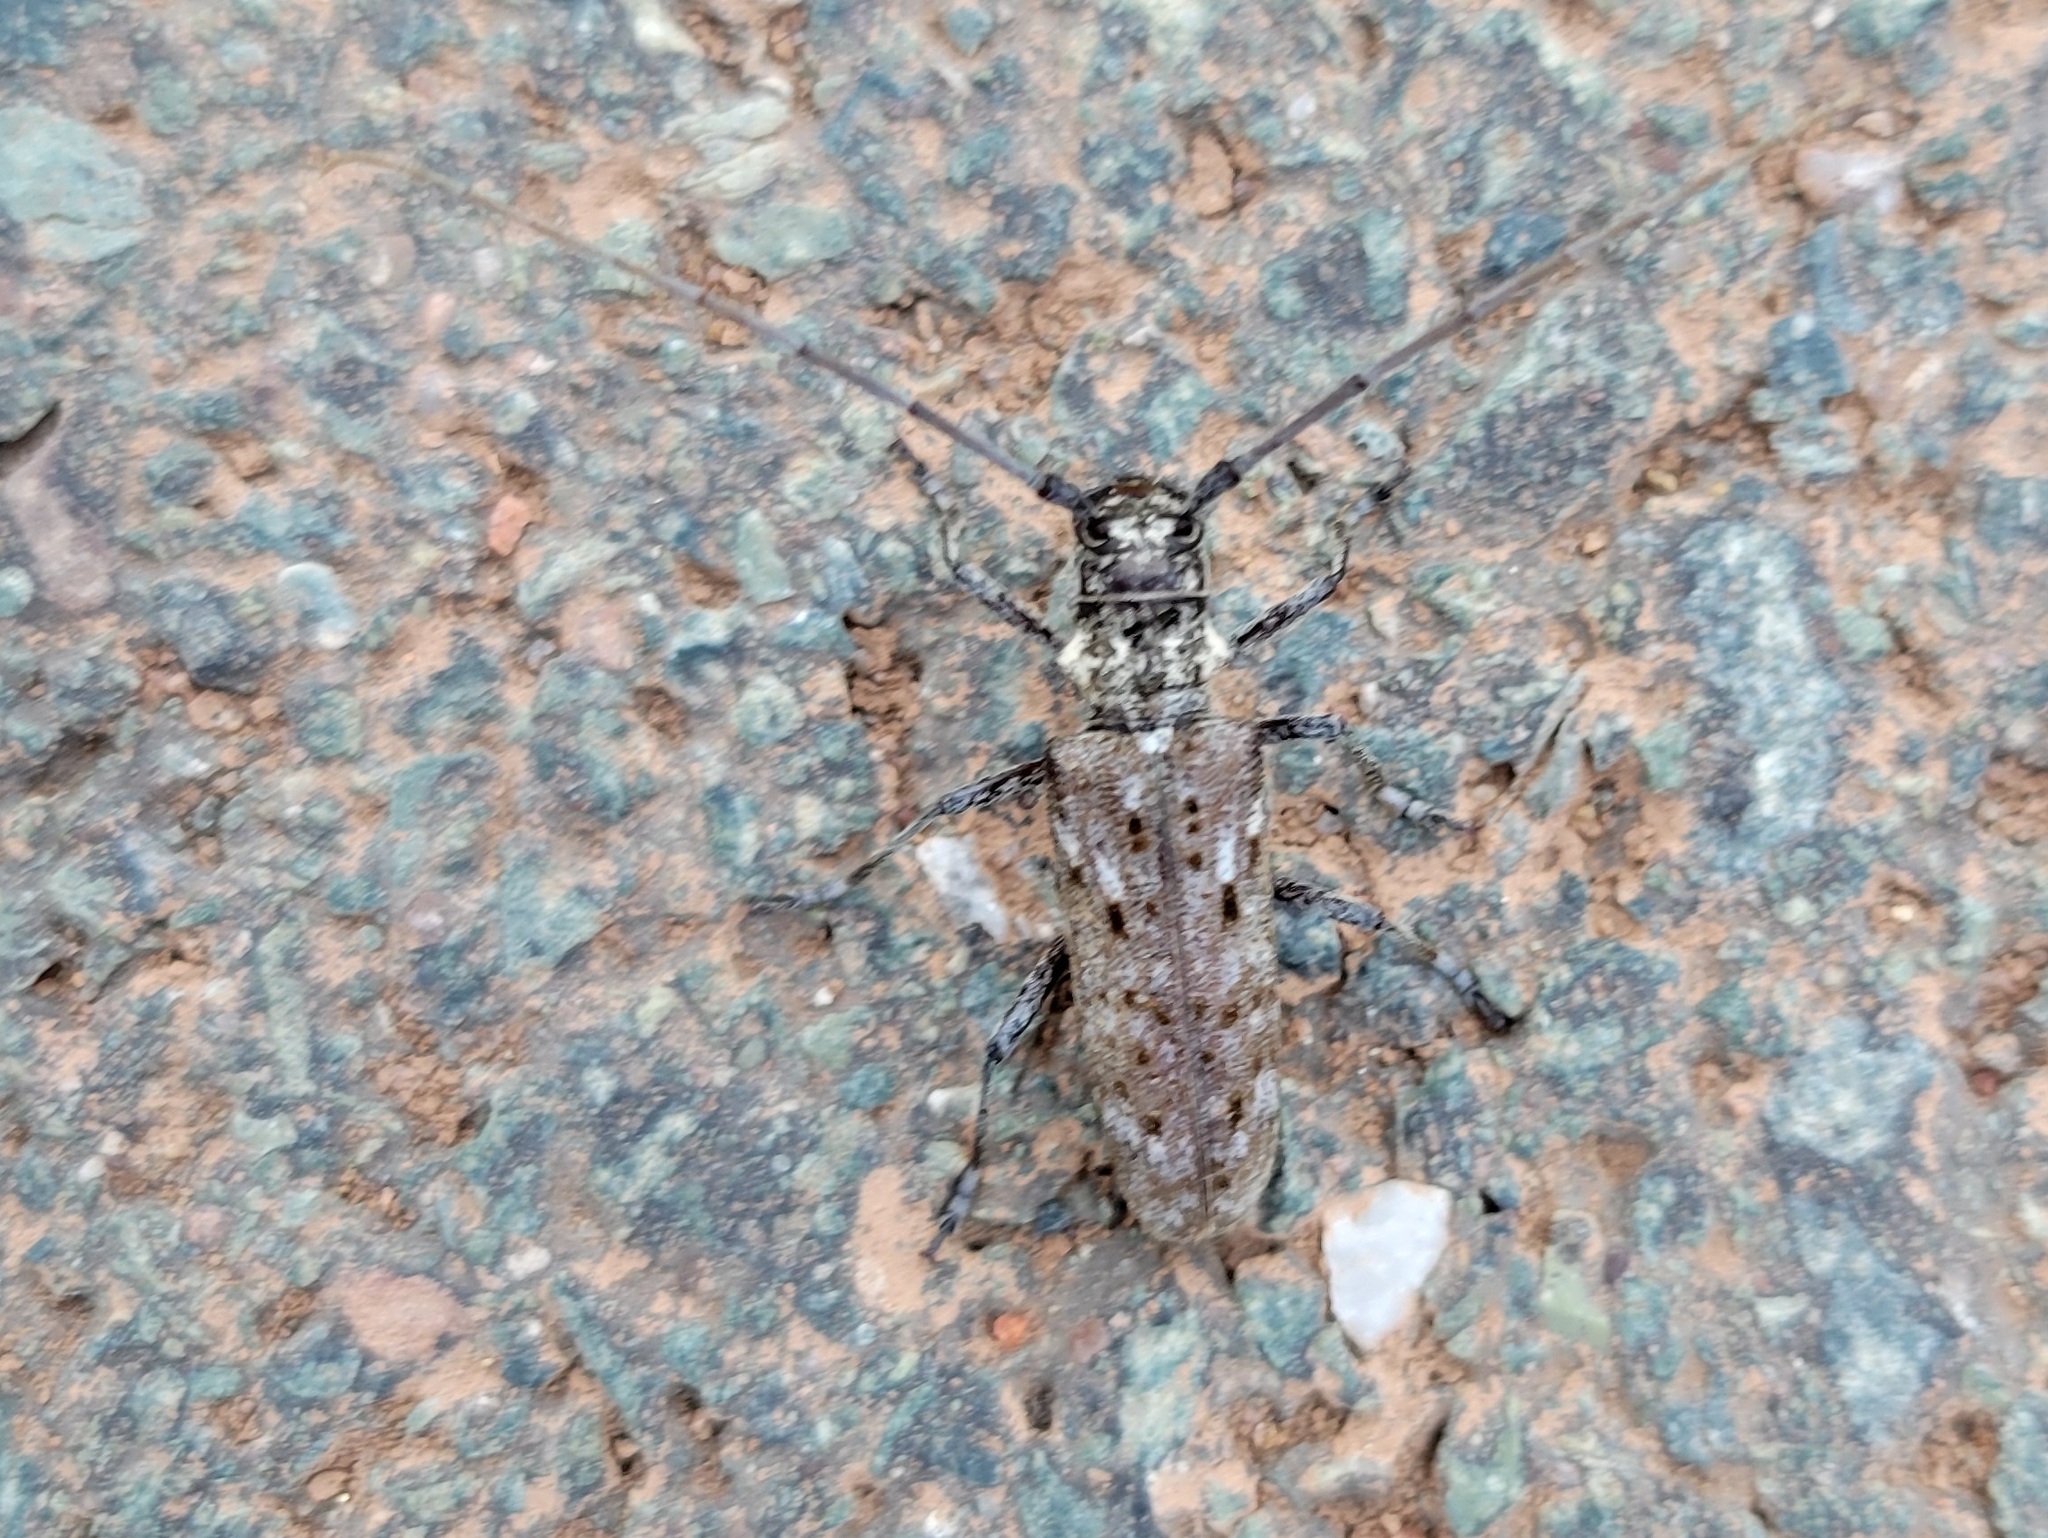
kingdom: Animalia
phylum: Arthropoda
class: Insecta
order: Coleoptera
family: Cerambycidae
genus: Monochamus
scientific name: Monochamus notatus
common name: Northeastern pine sawyer beetle
